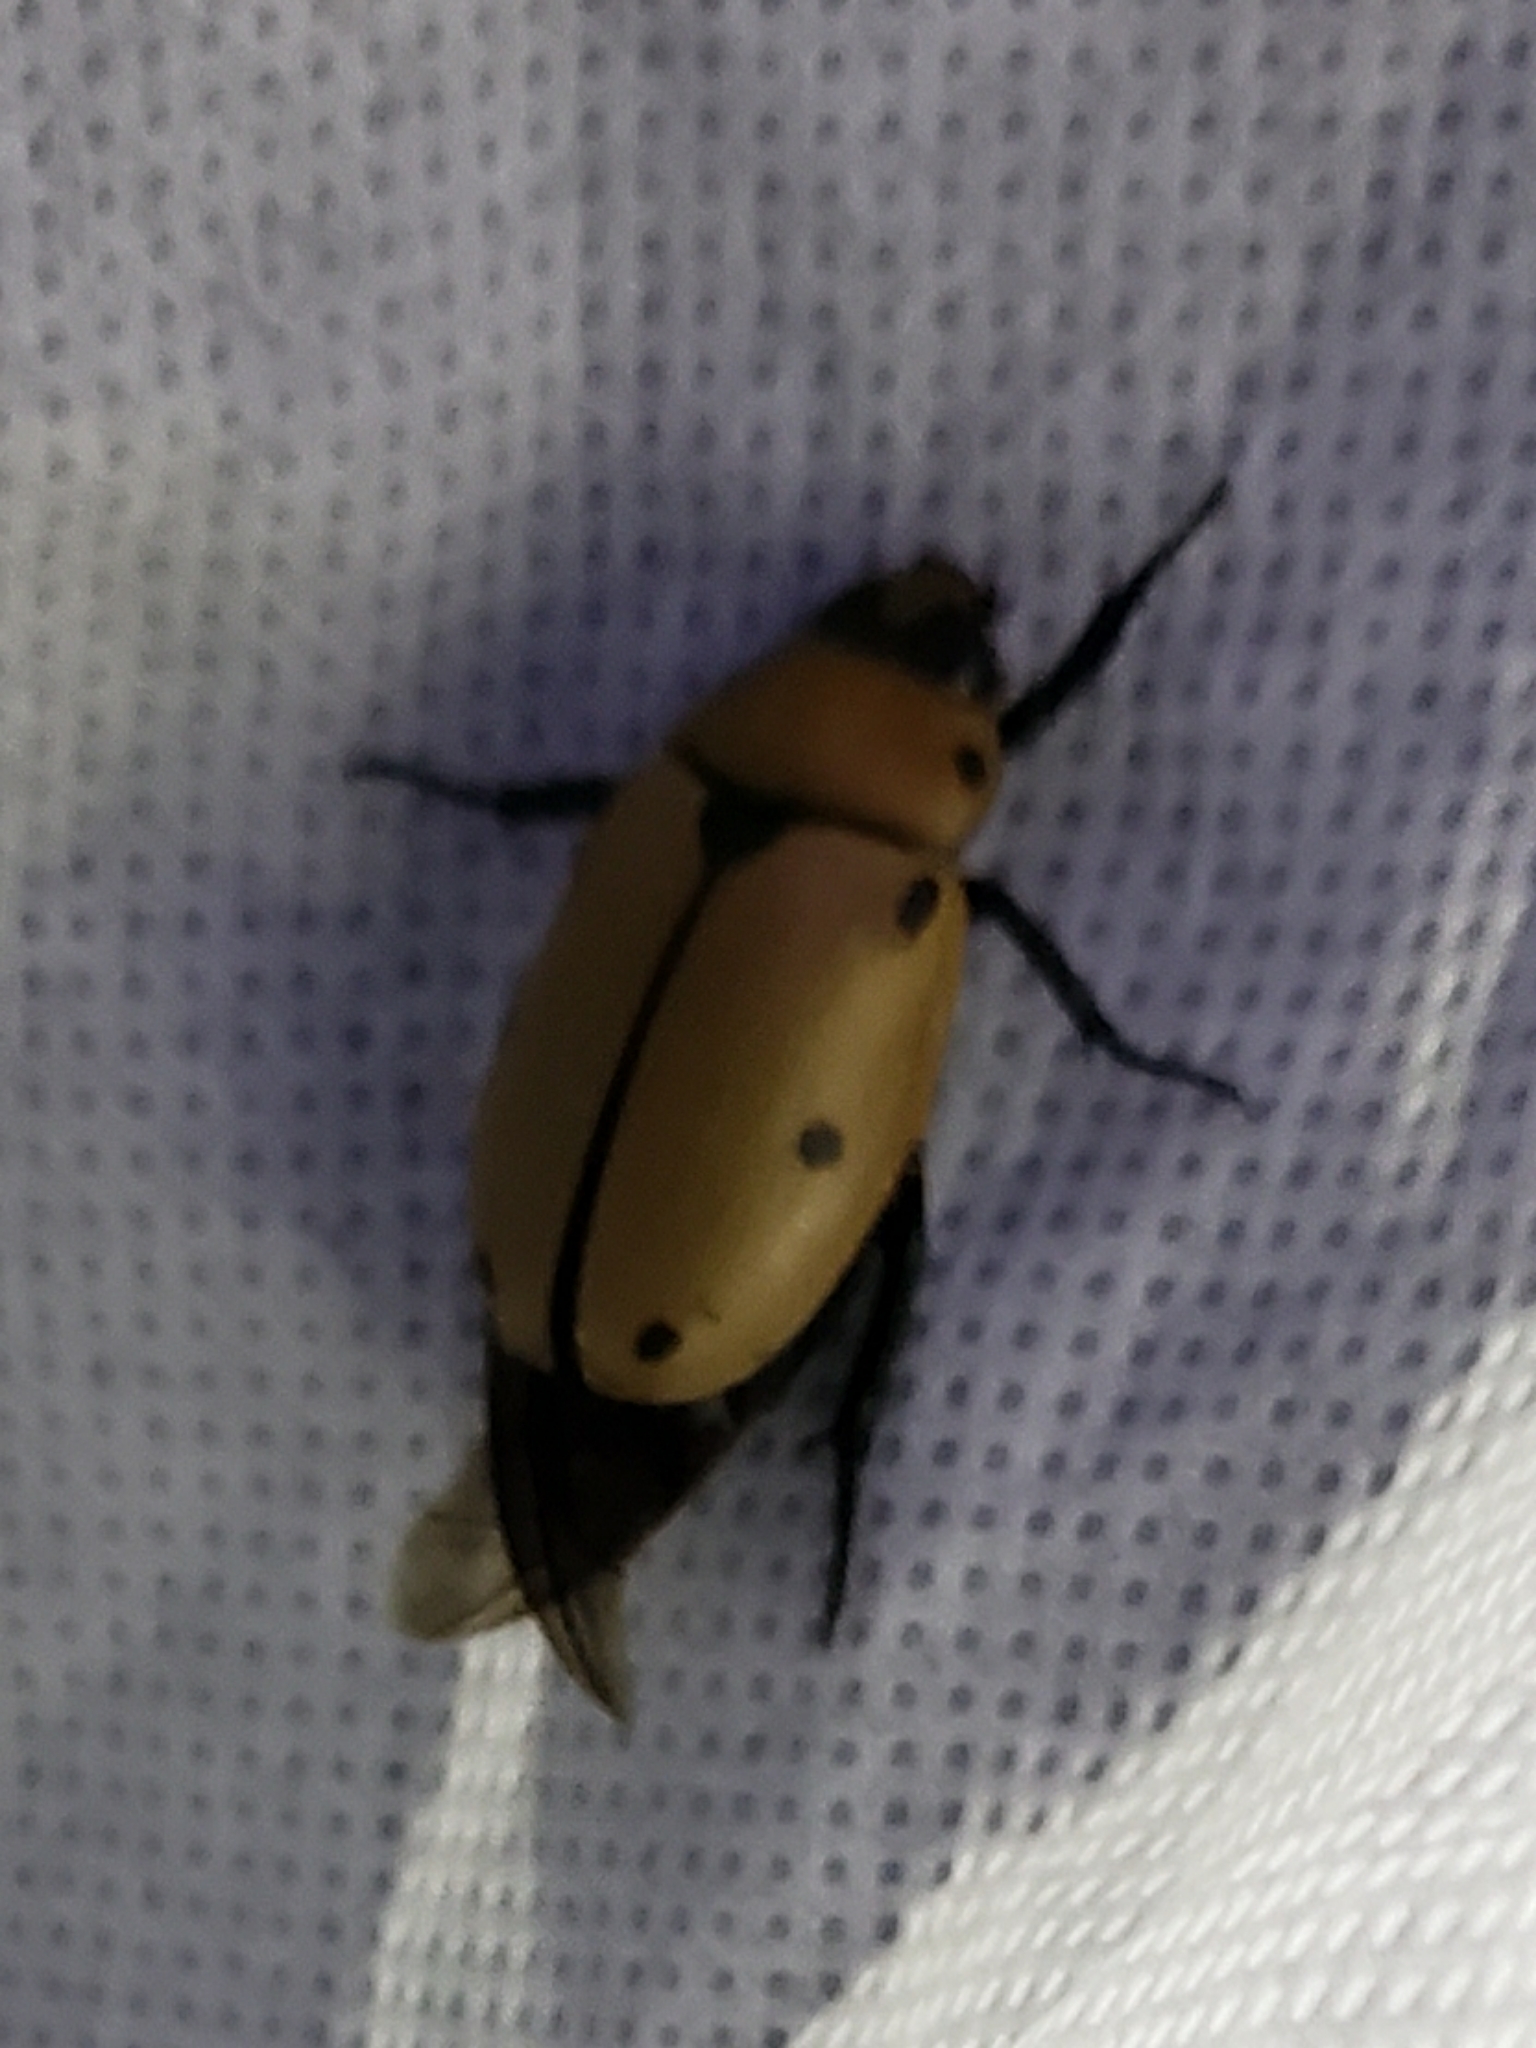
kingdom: Animalia
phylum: Arthropoda
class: Insecta
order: Coleoptera
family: Scarabaeidae
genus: Pelidnota
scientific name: Pelidnota punctata
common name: Grapevine beetle
